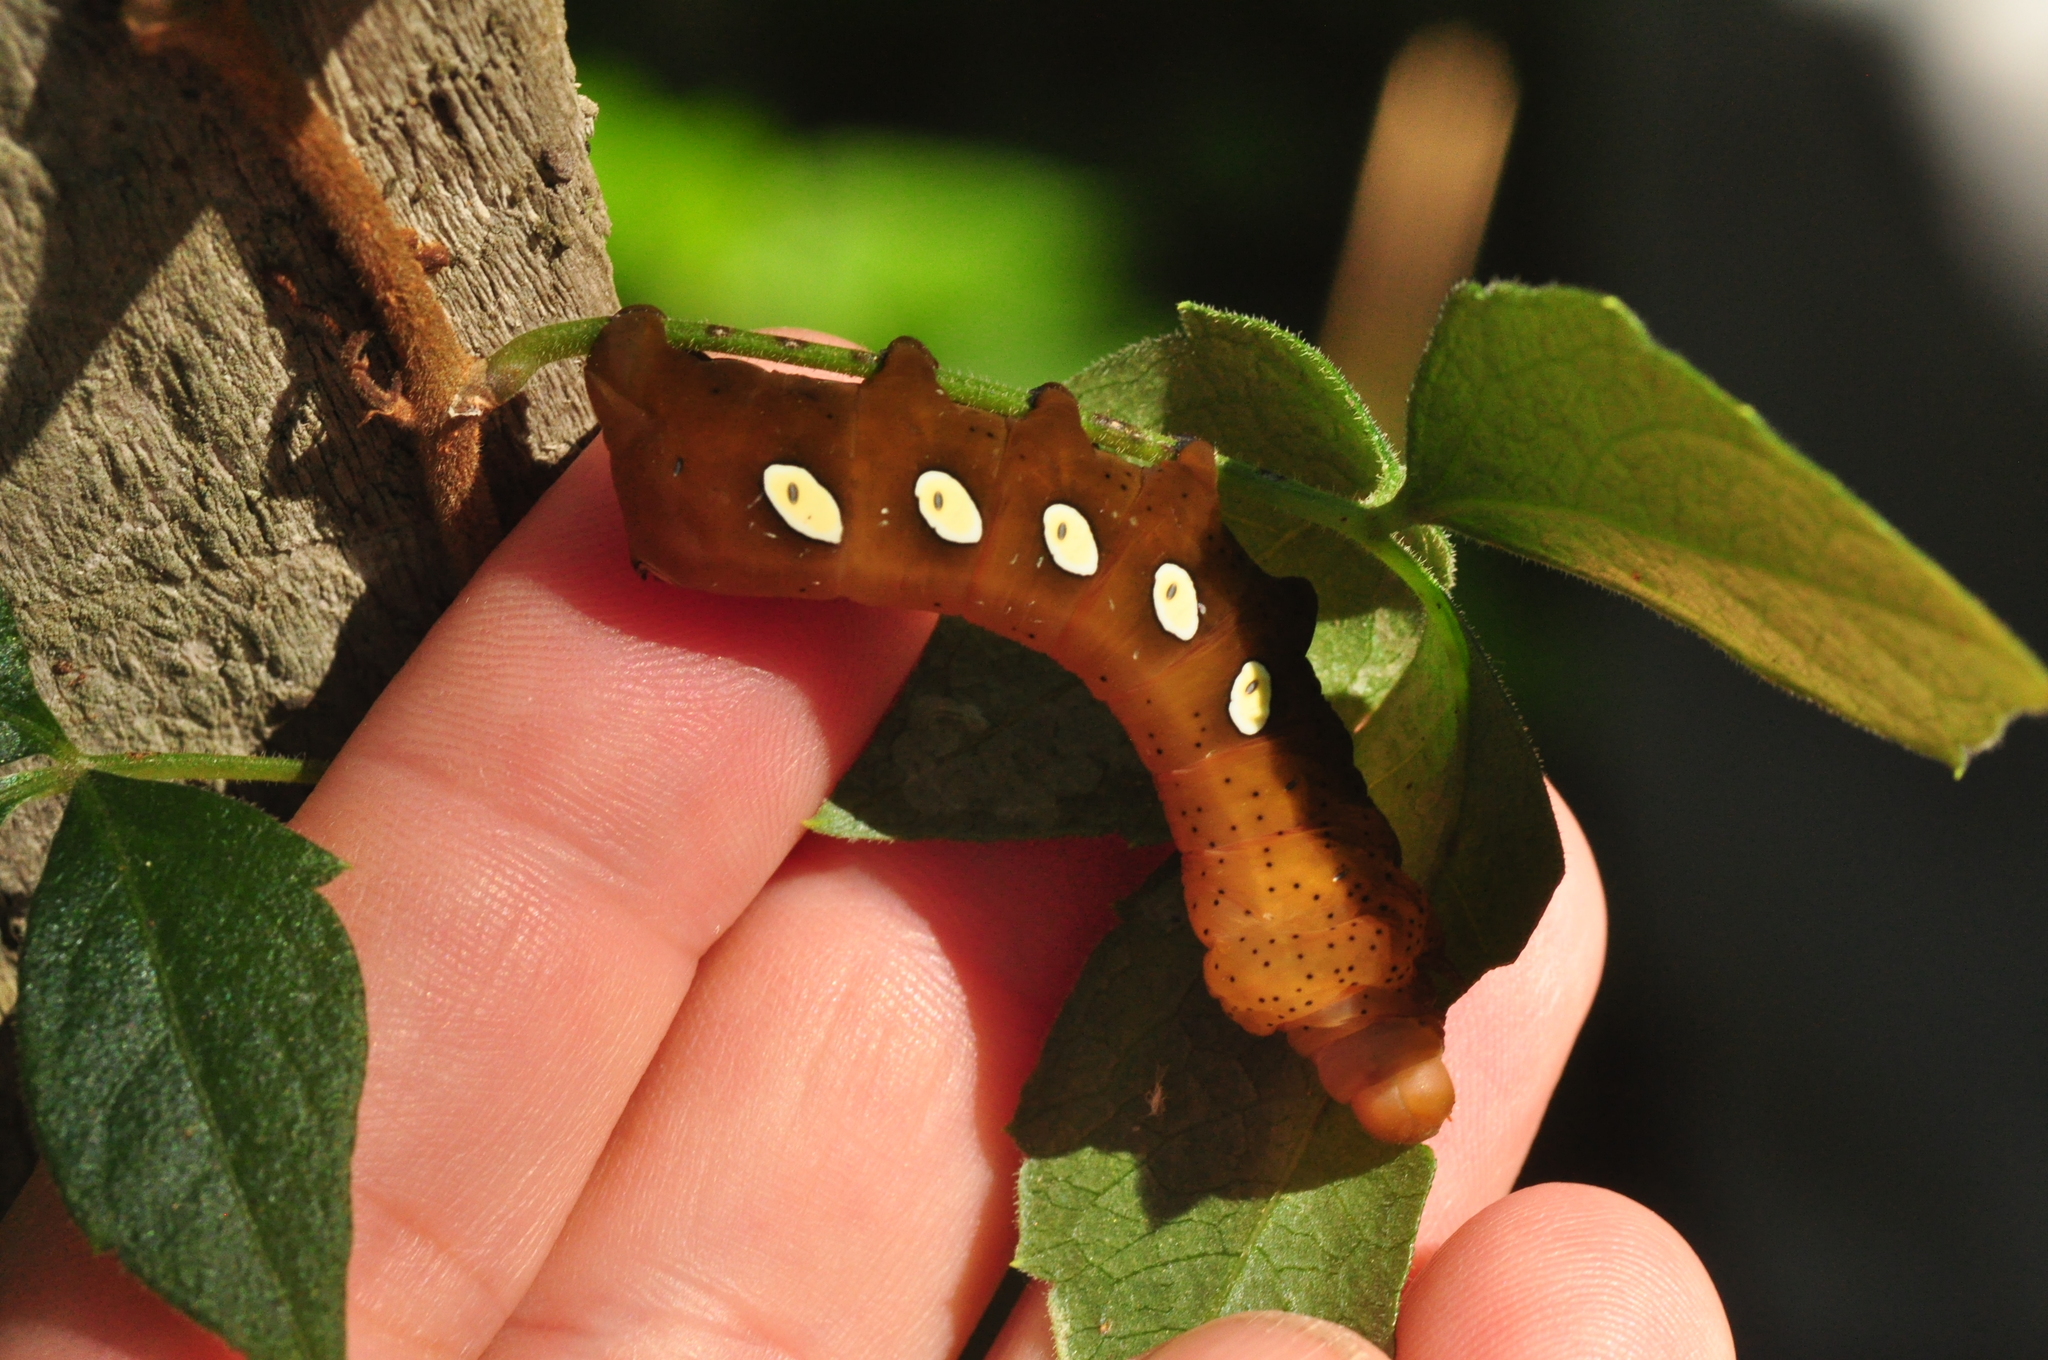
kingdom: Animalia
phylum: Arthropoda
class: Insecta
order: Lepidoptera
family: Sphingidae
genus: Eumorpha
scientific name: Eumorpha pandorus
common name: Pandora sphinx
